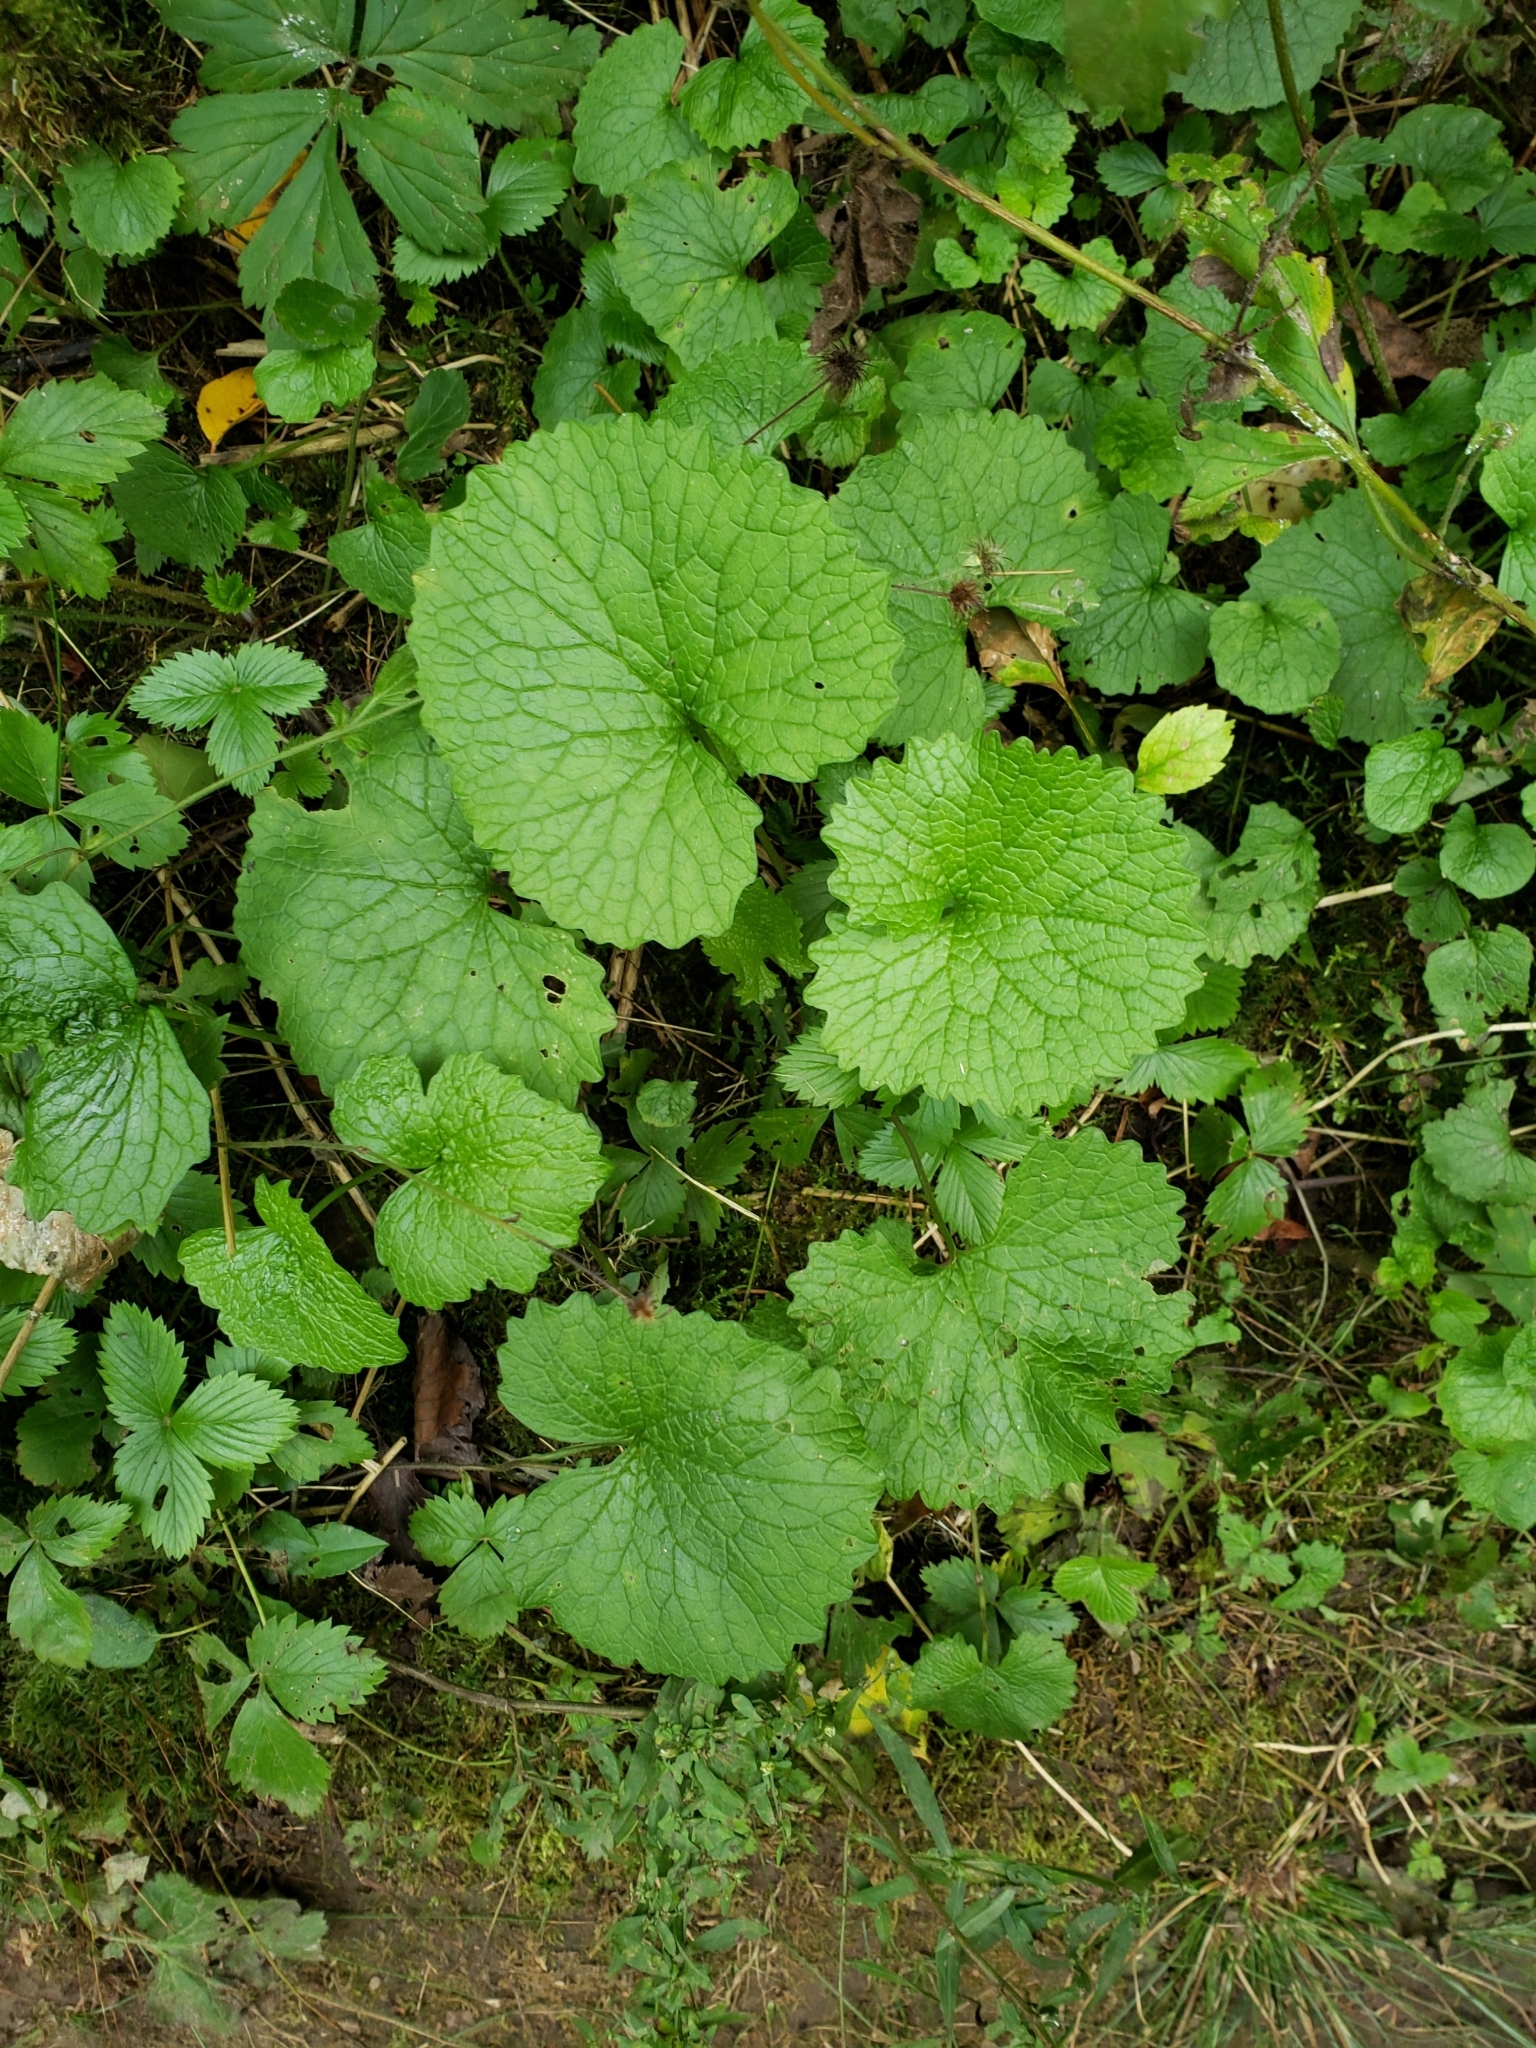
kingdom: Plantae
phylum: Tracheophyta
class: Magnoliopsida
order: Brassicales
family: Brassicaceae
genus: Alliaria
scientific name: Alliaria petiolata
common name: Garlic mustard
